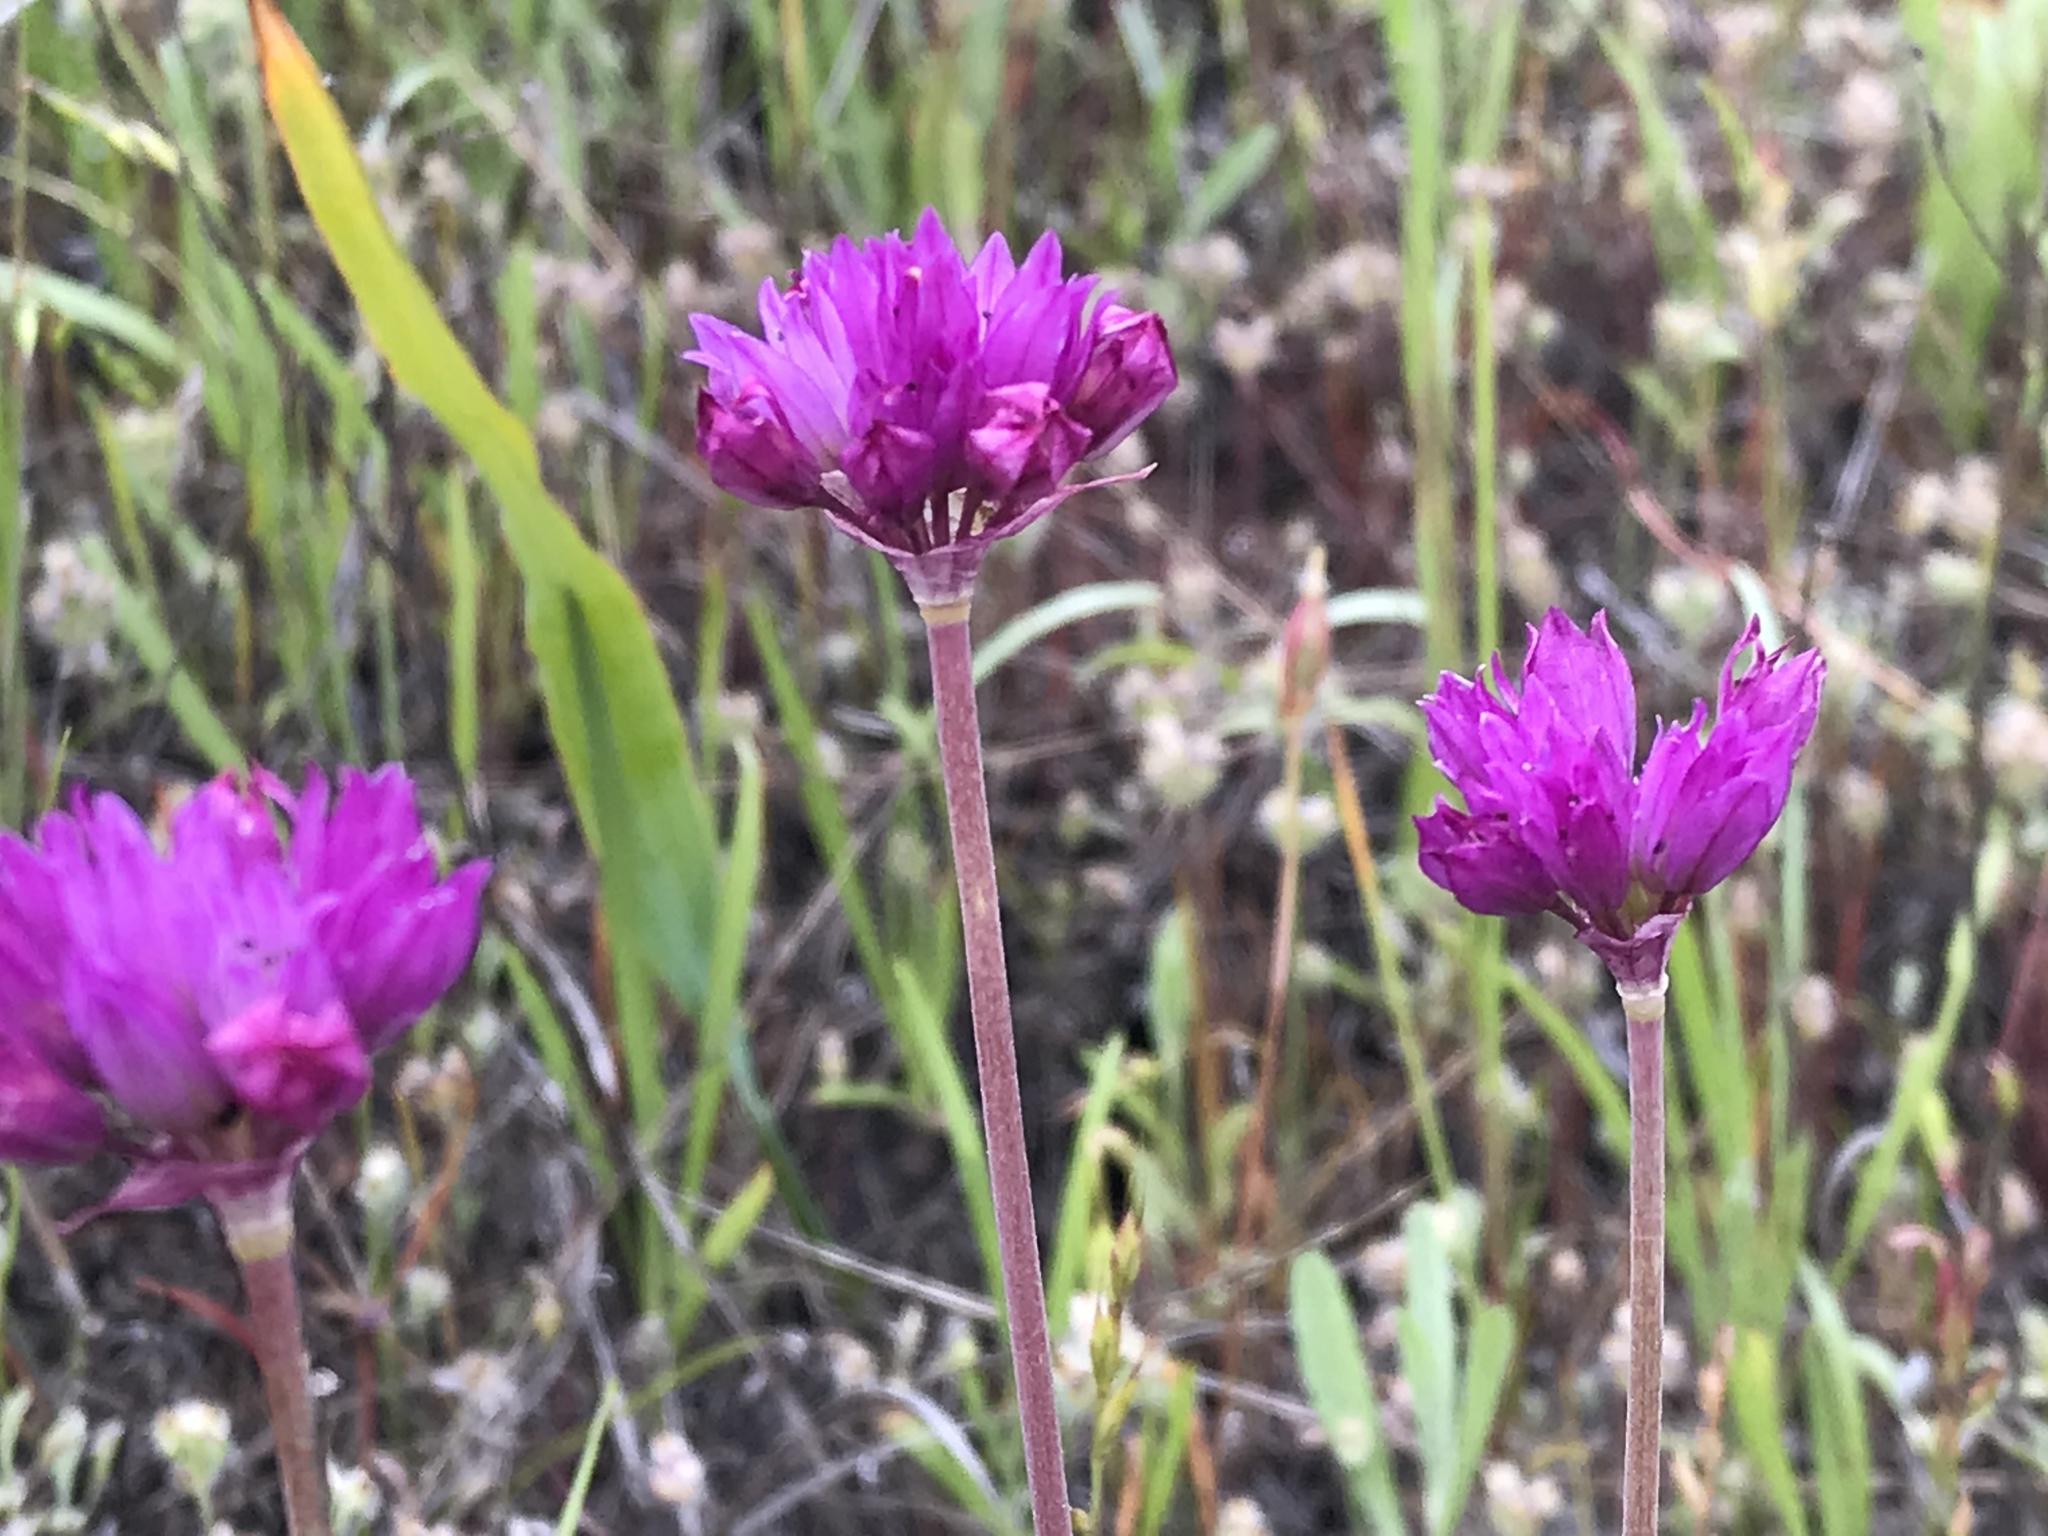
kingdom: Plantae
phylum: Tracheophyta
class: Liliopsida
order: Asparagales
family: Amaryllidaceae
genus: Allium
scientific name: Allium serra
